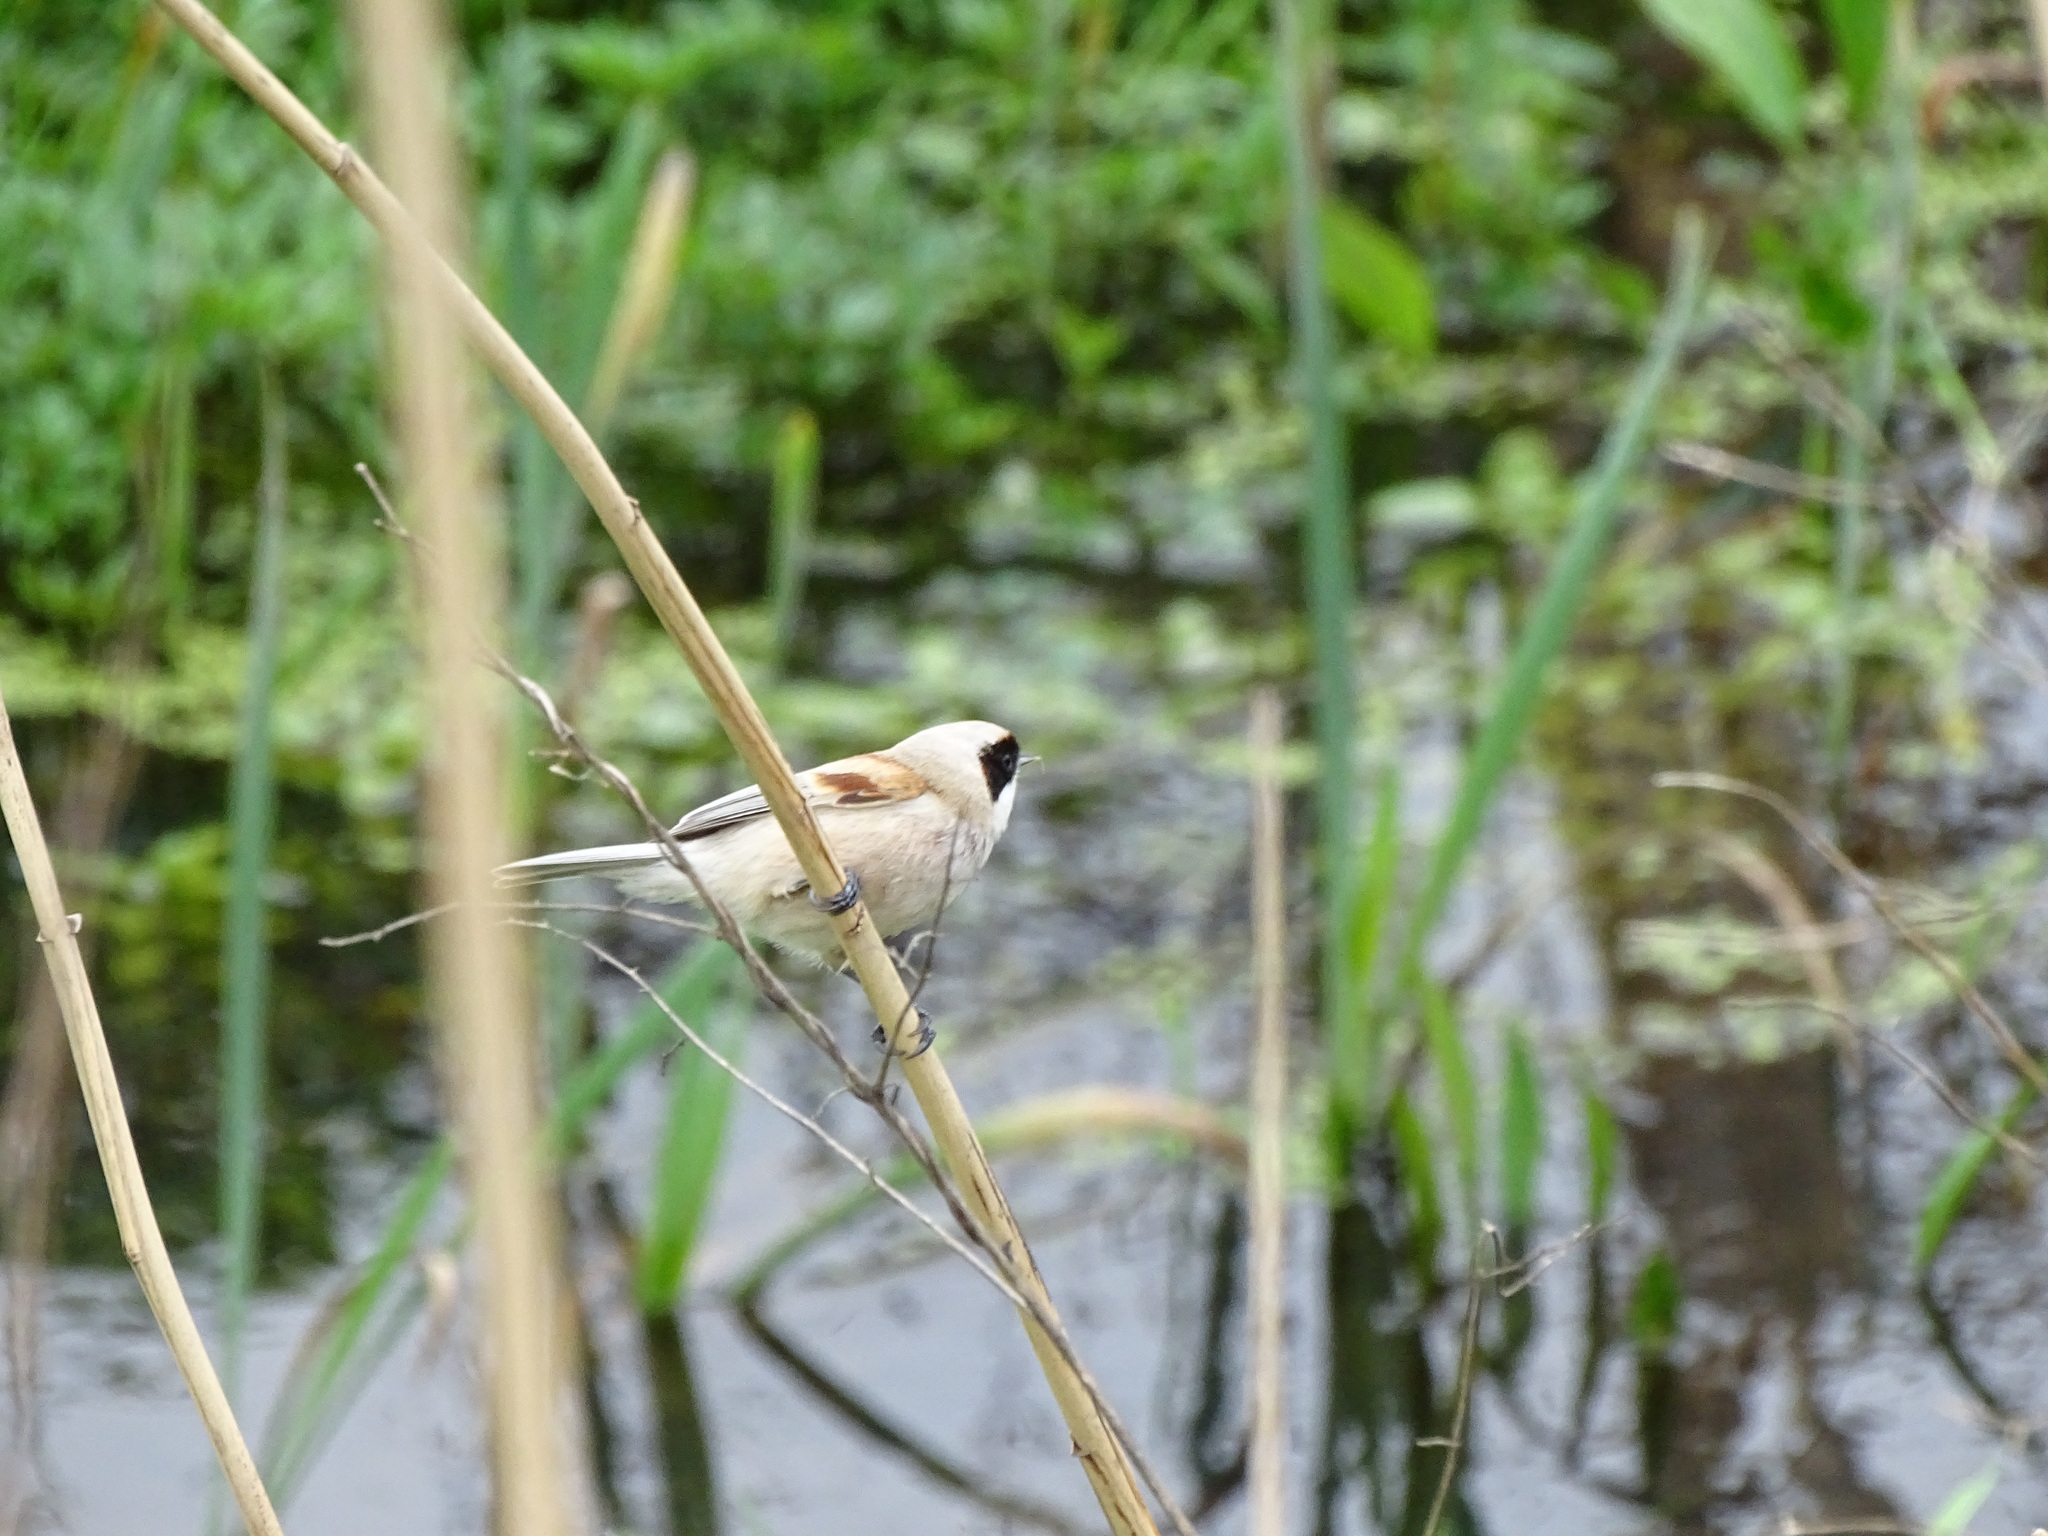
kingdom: Animalia
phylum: Chordata
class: Aves
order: Passeriformes
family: Remizidae
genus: Remiz
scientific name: Remiz pendulinus
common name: Eurasian penduline tit
